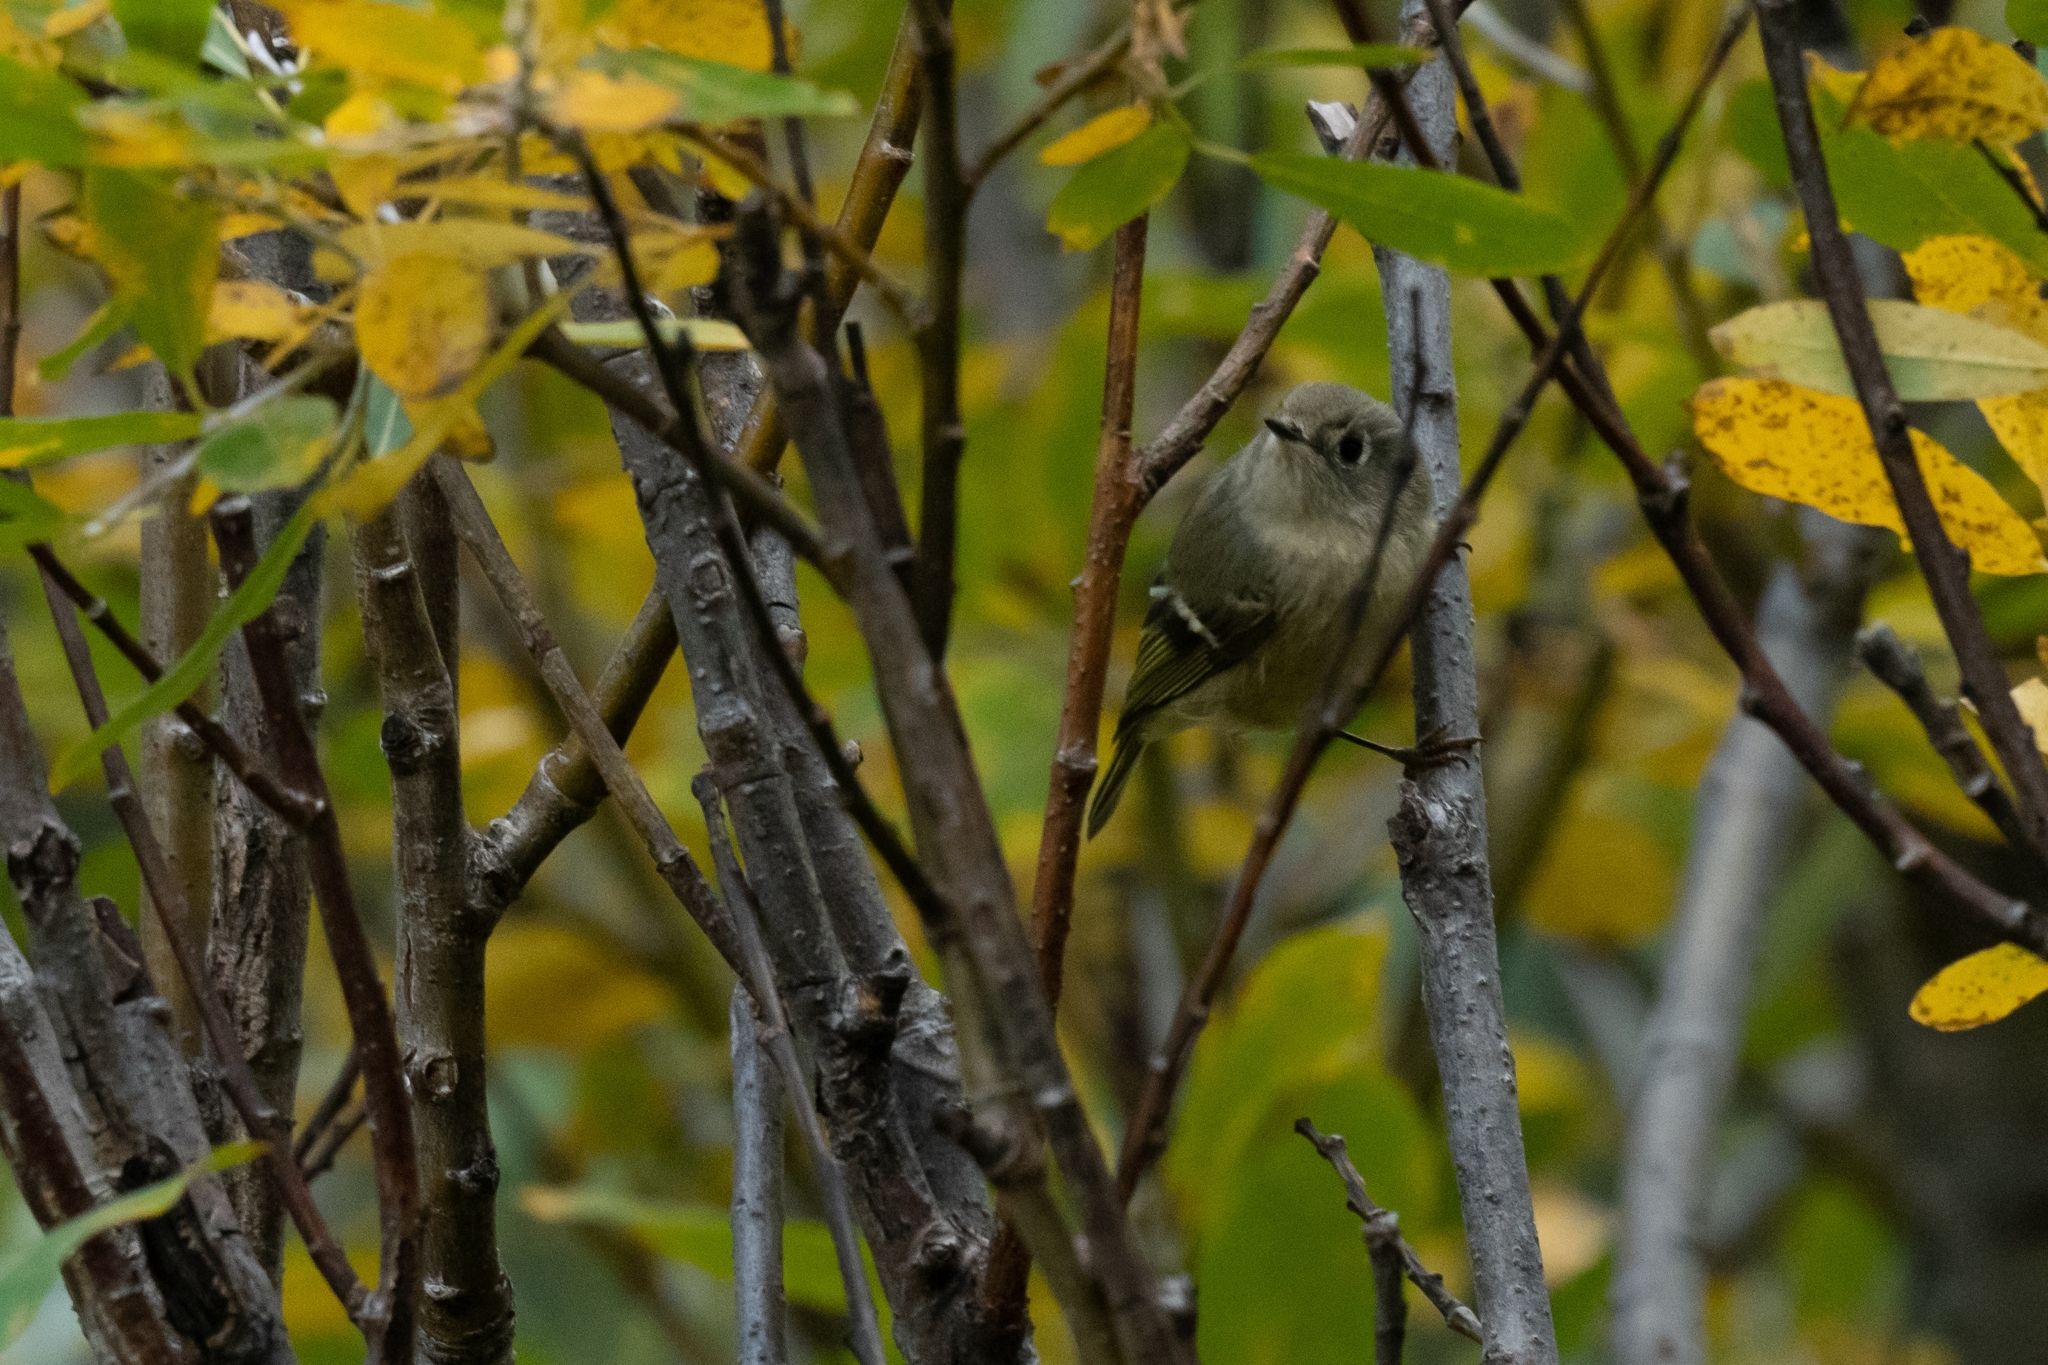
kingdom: Animalia
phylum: Chordata
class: Aves
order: Passeriformes
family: Regulidae
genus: Regulus
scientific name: Regulus calendula
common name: Ruby-crowned kinglet
